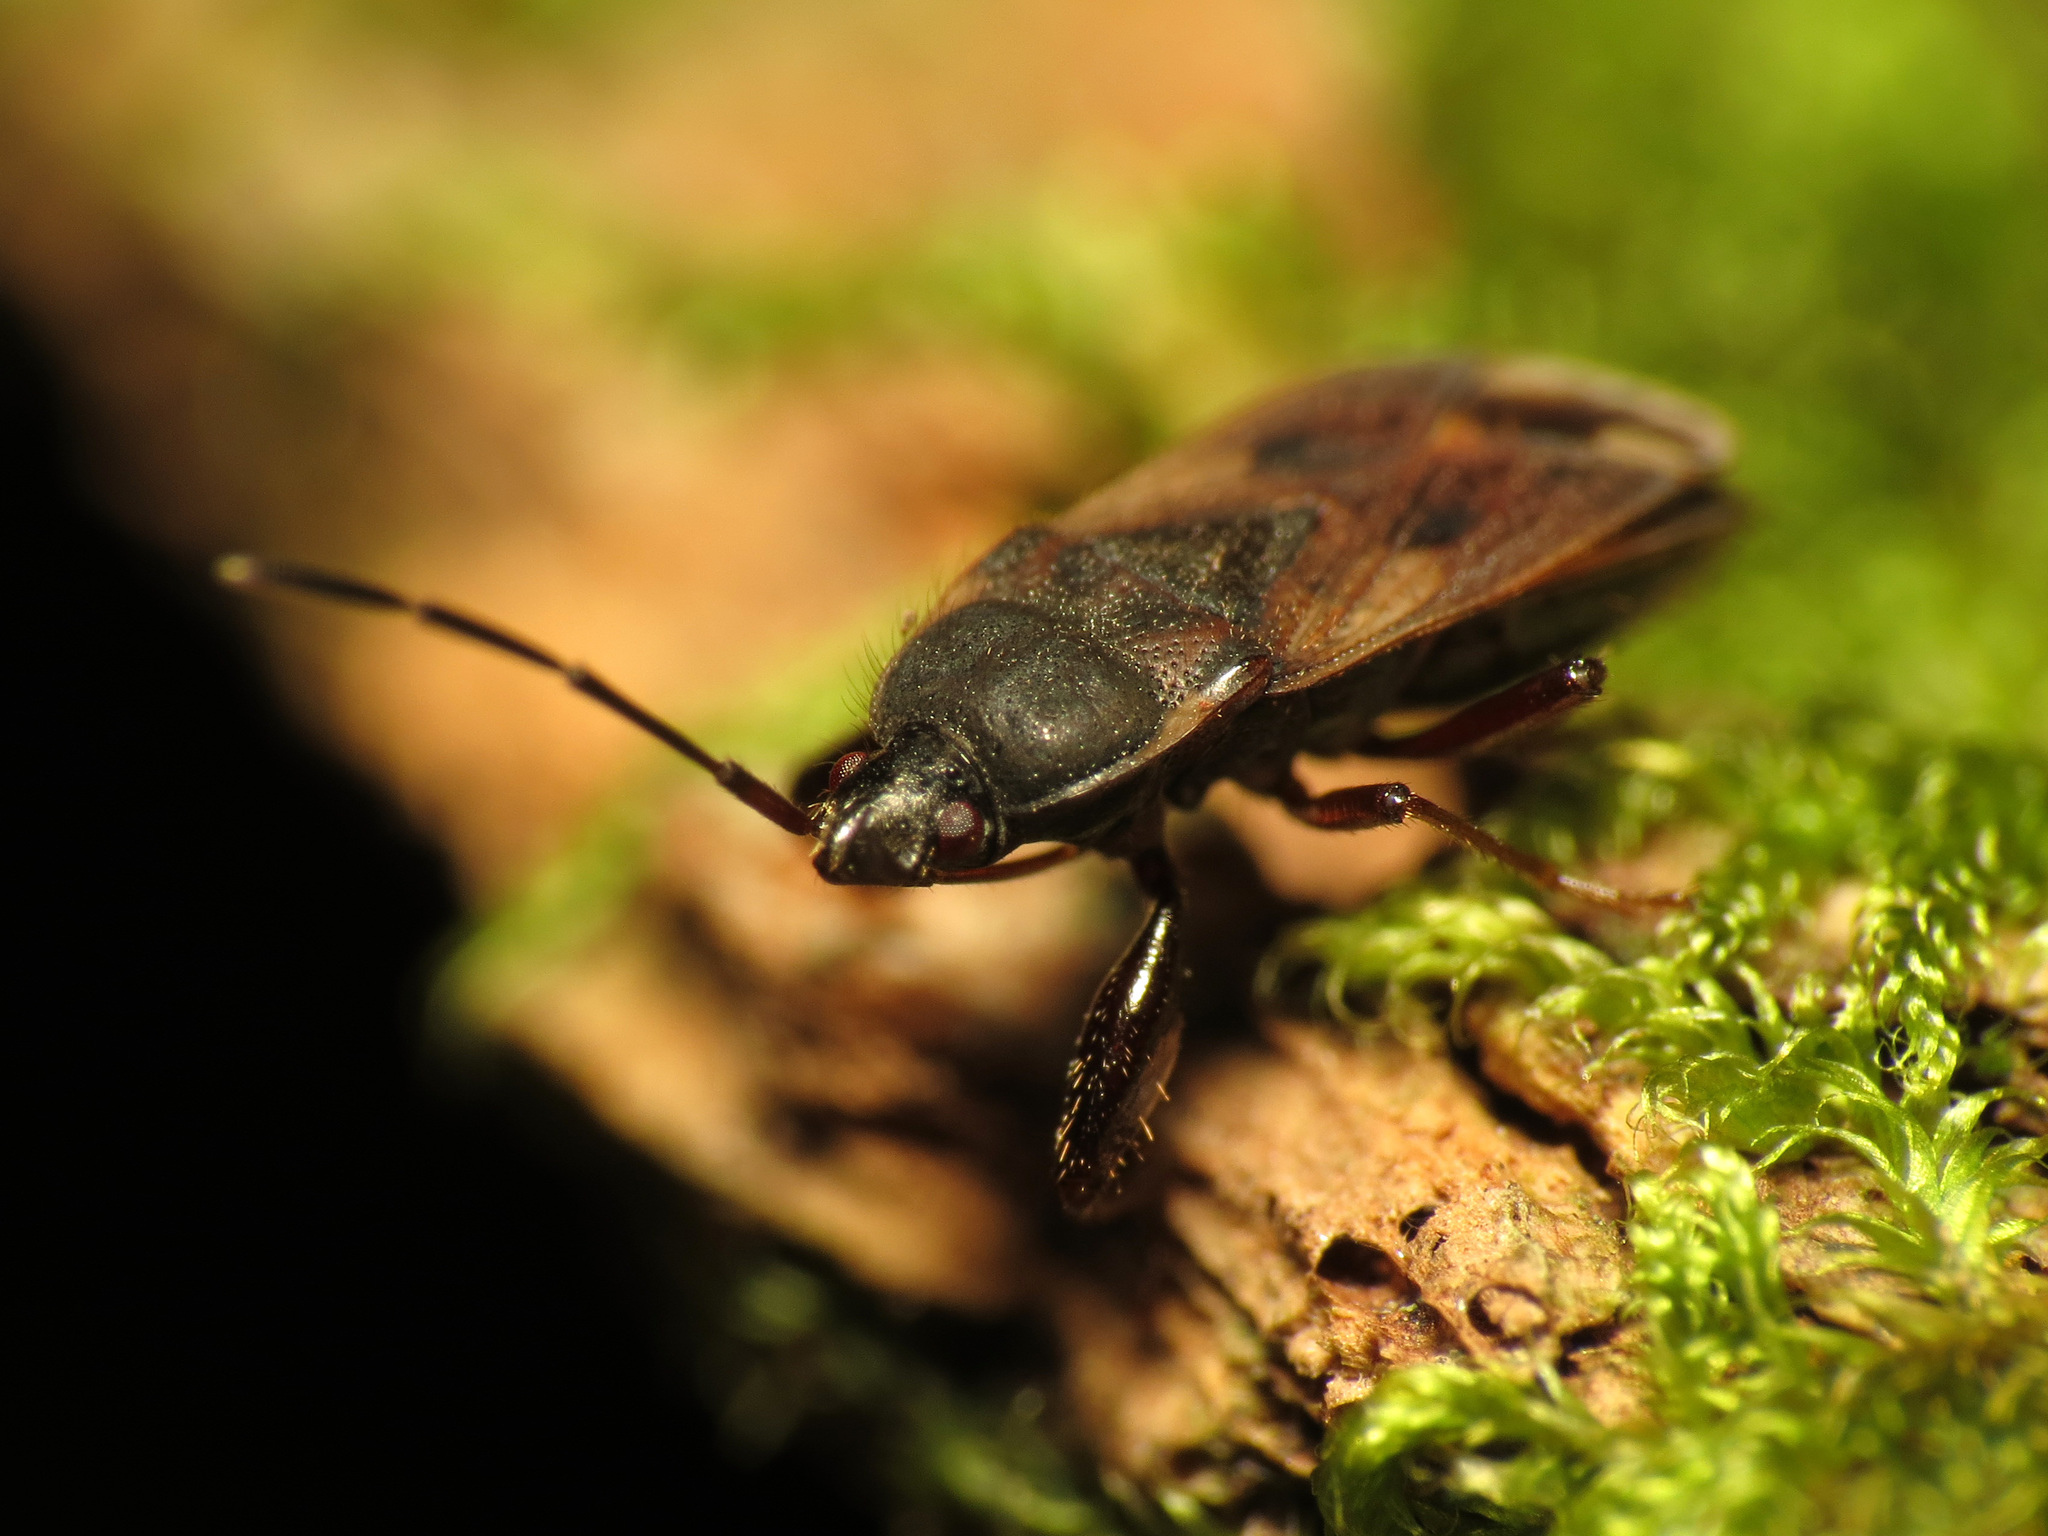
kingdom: Animalia
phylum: Arthropoda
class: Insecta
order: Hemiptera
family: Rhyparochromidae
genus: Eremocoris
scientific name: Eremocoris ferus
